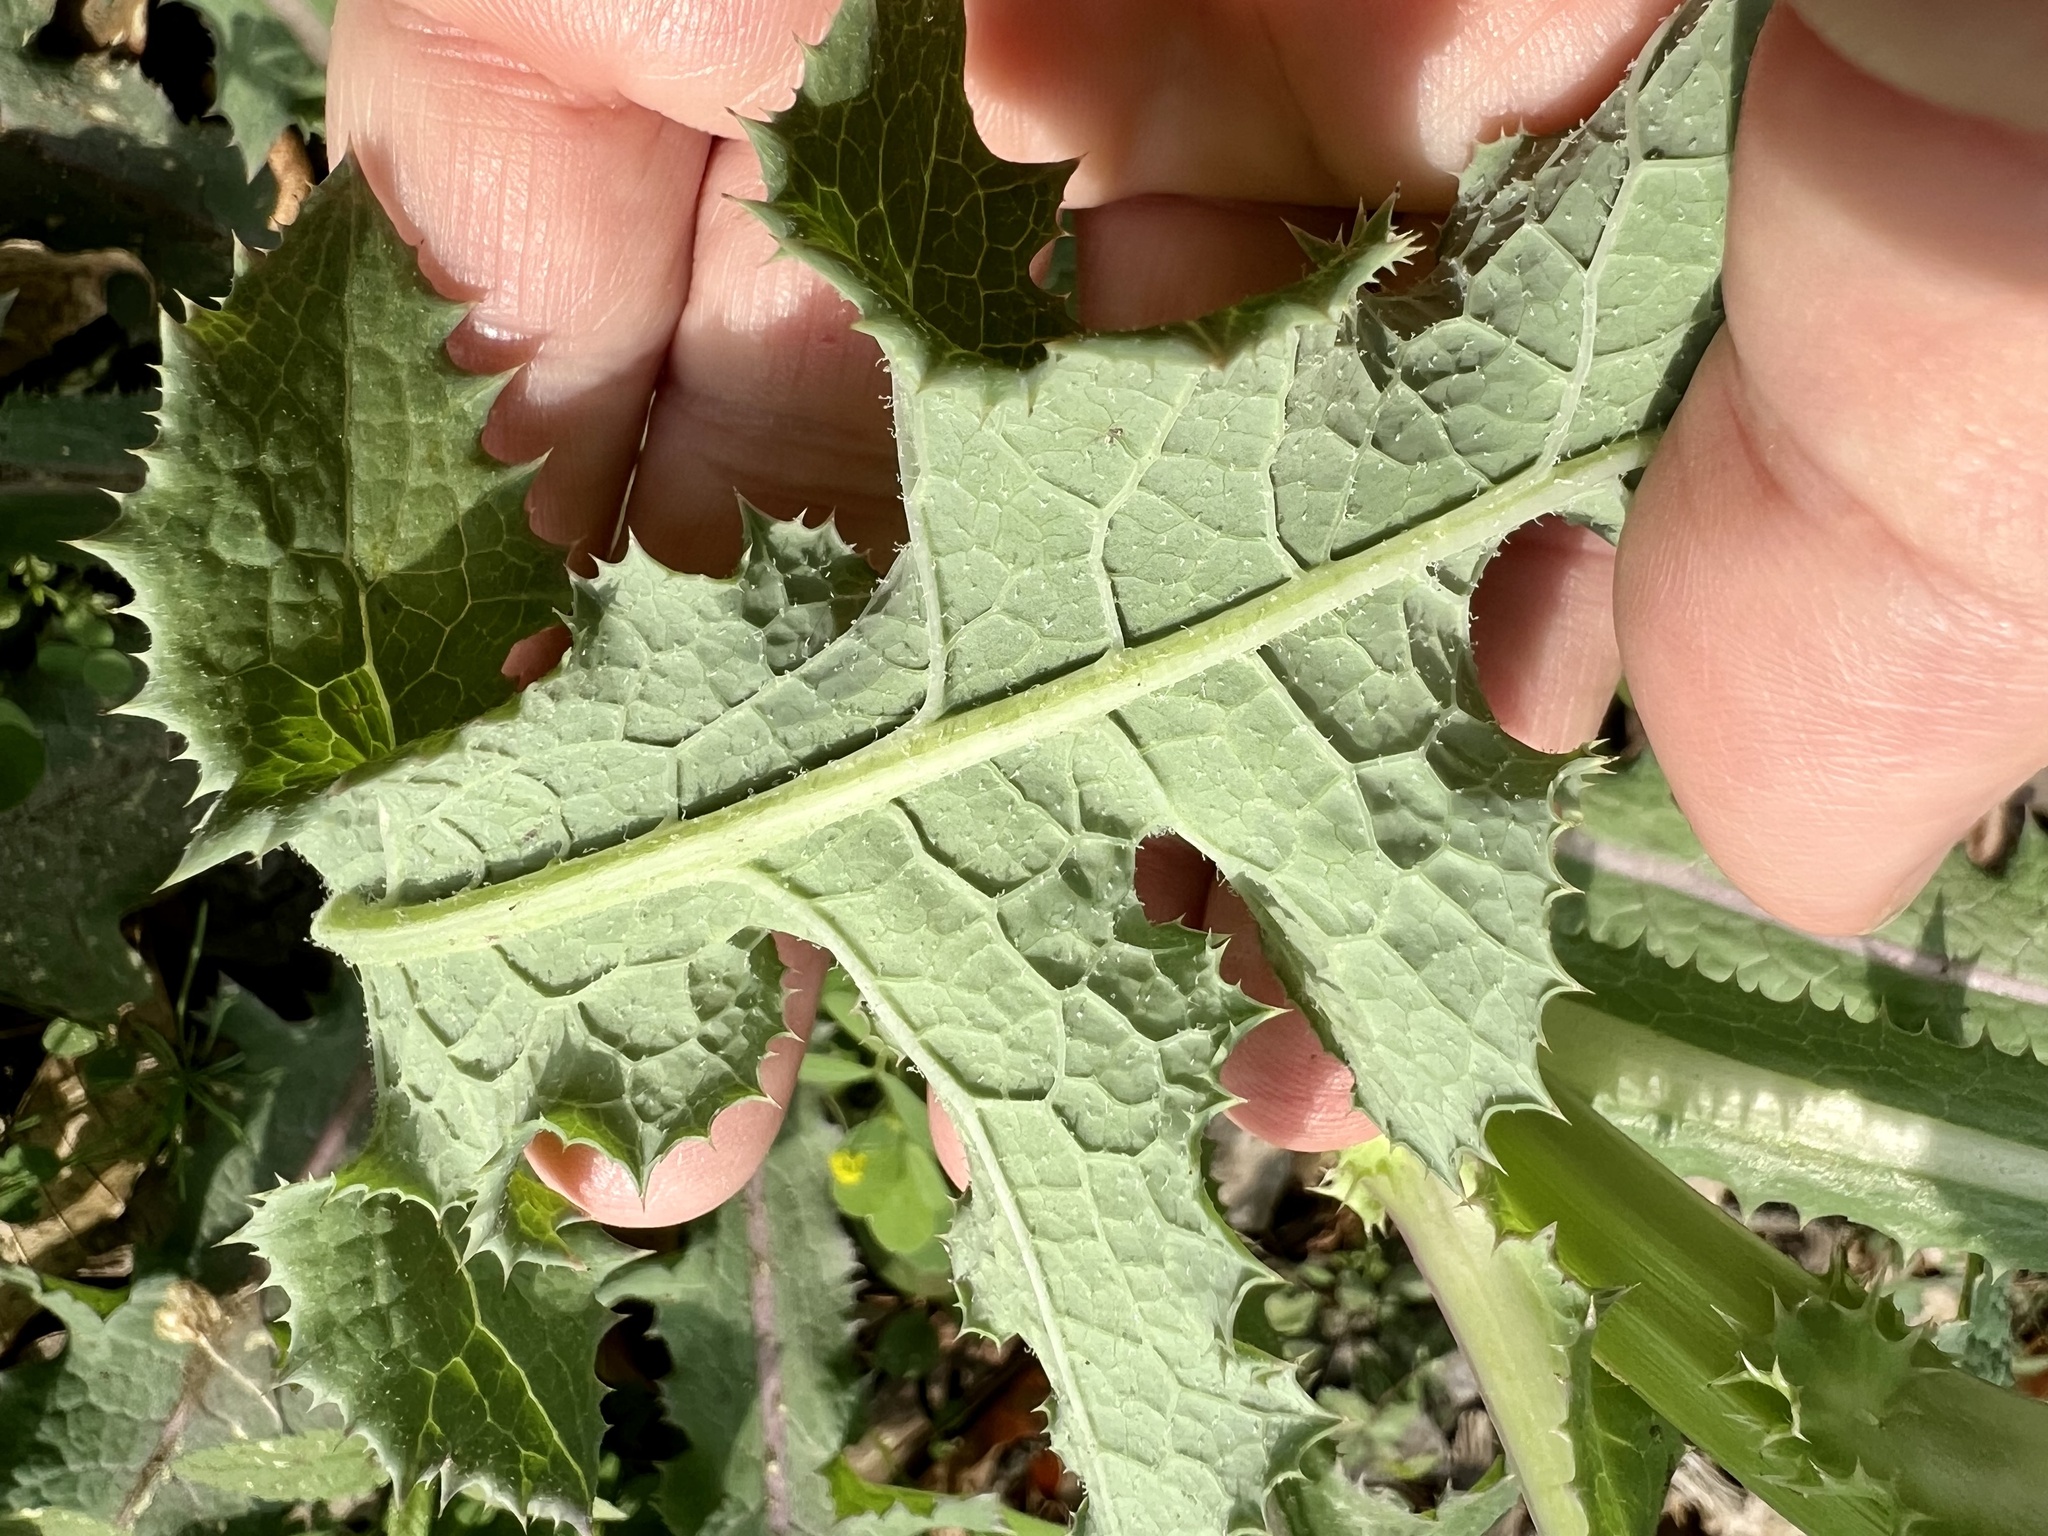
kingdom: Plantae
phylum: Tracheophyta
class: Magnoliopsida
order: Asterales
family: Asteraceae
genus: Sonchus
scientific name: Sonchus oleraceus
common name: Common sowthistle
